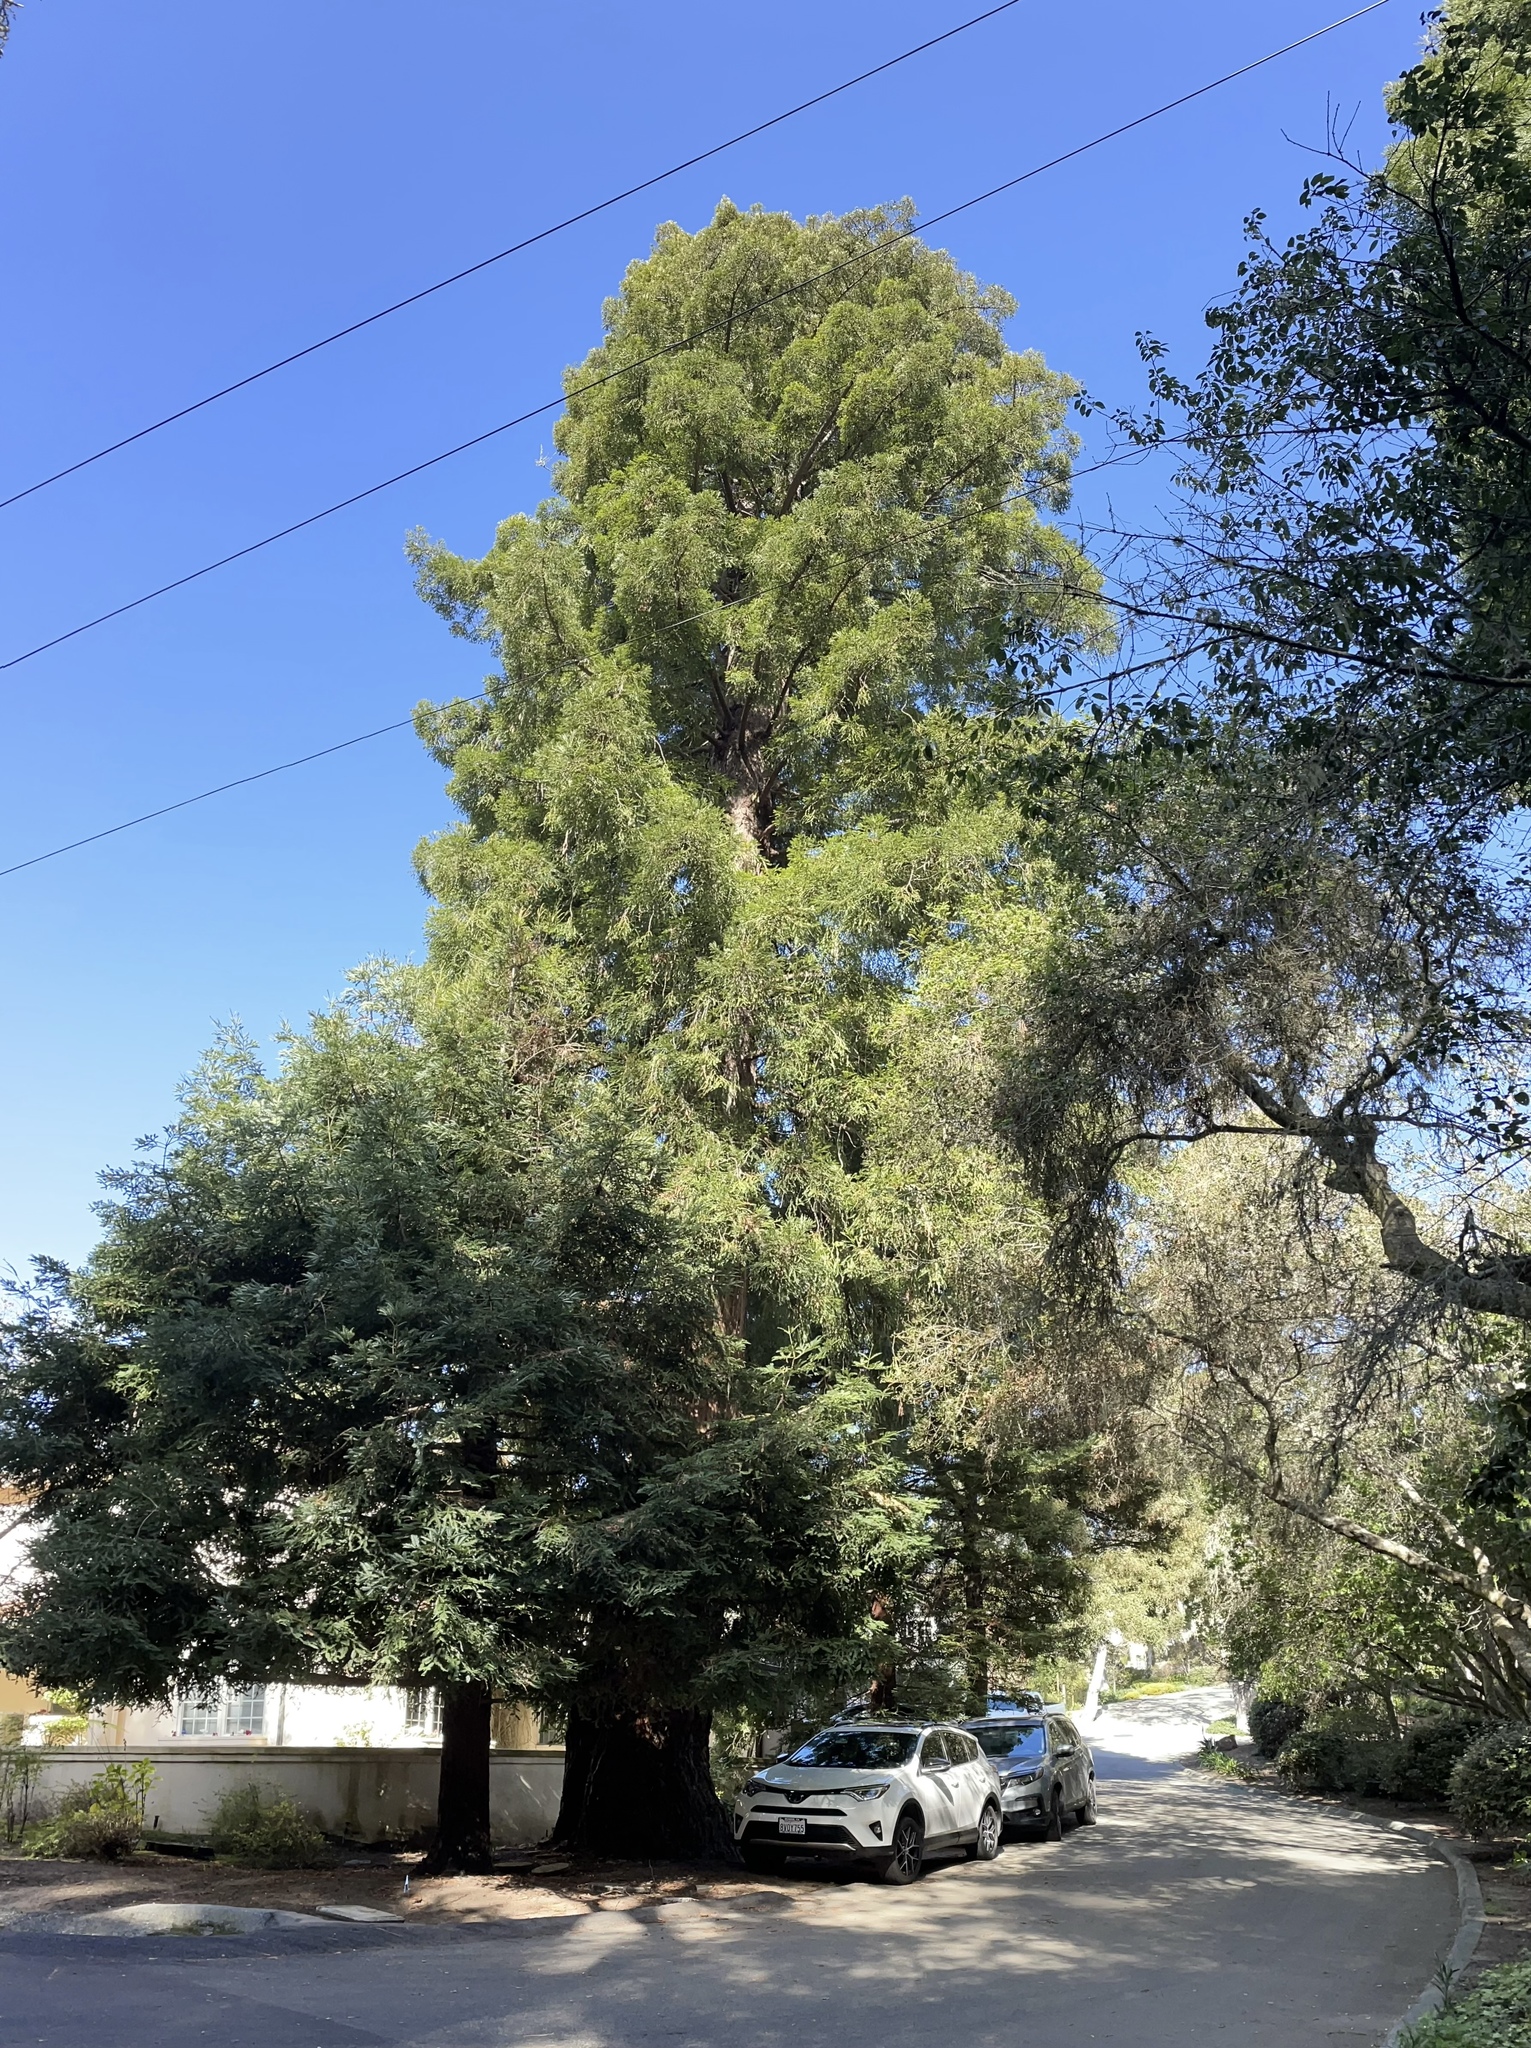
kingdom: Plantae
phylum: Tracheophyta
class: Pinopsida
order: Pinales
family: Cupressaceae
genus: Sequoia
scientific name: Sequoia sempervirens
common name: Coast redwood
